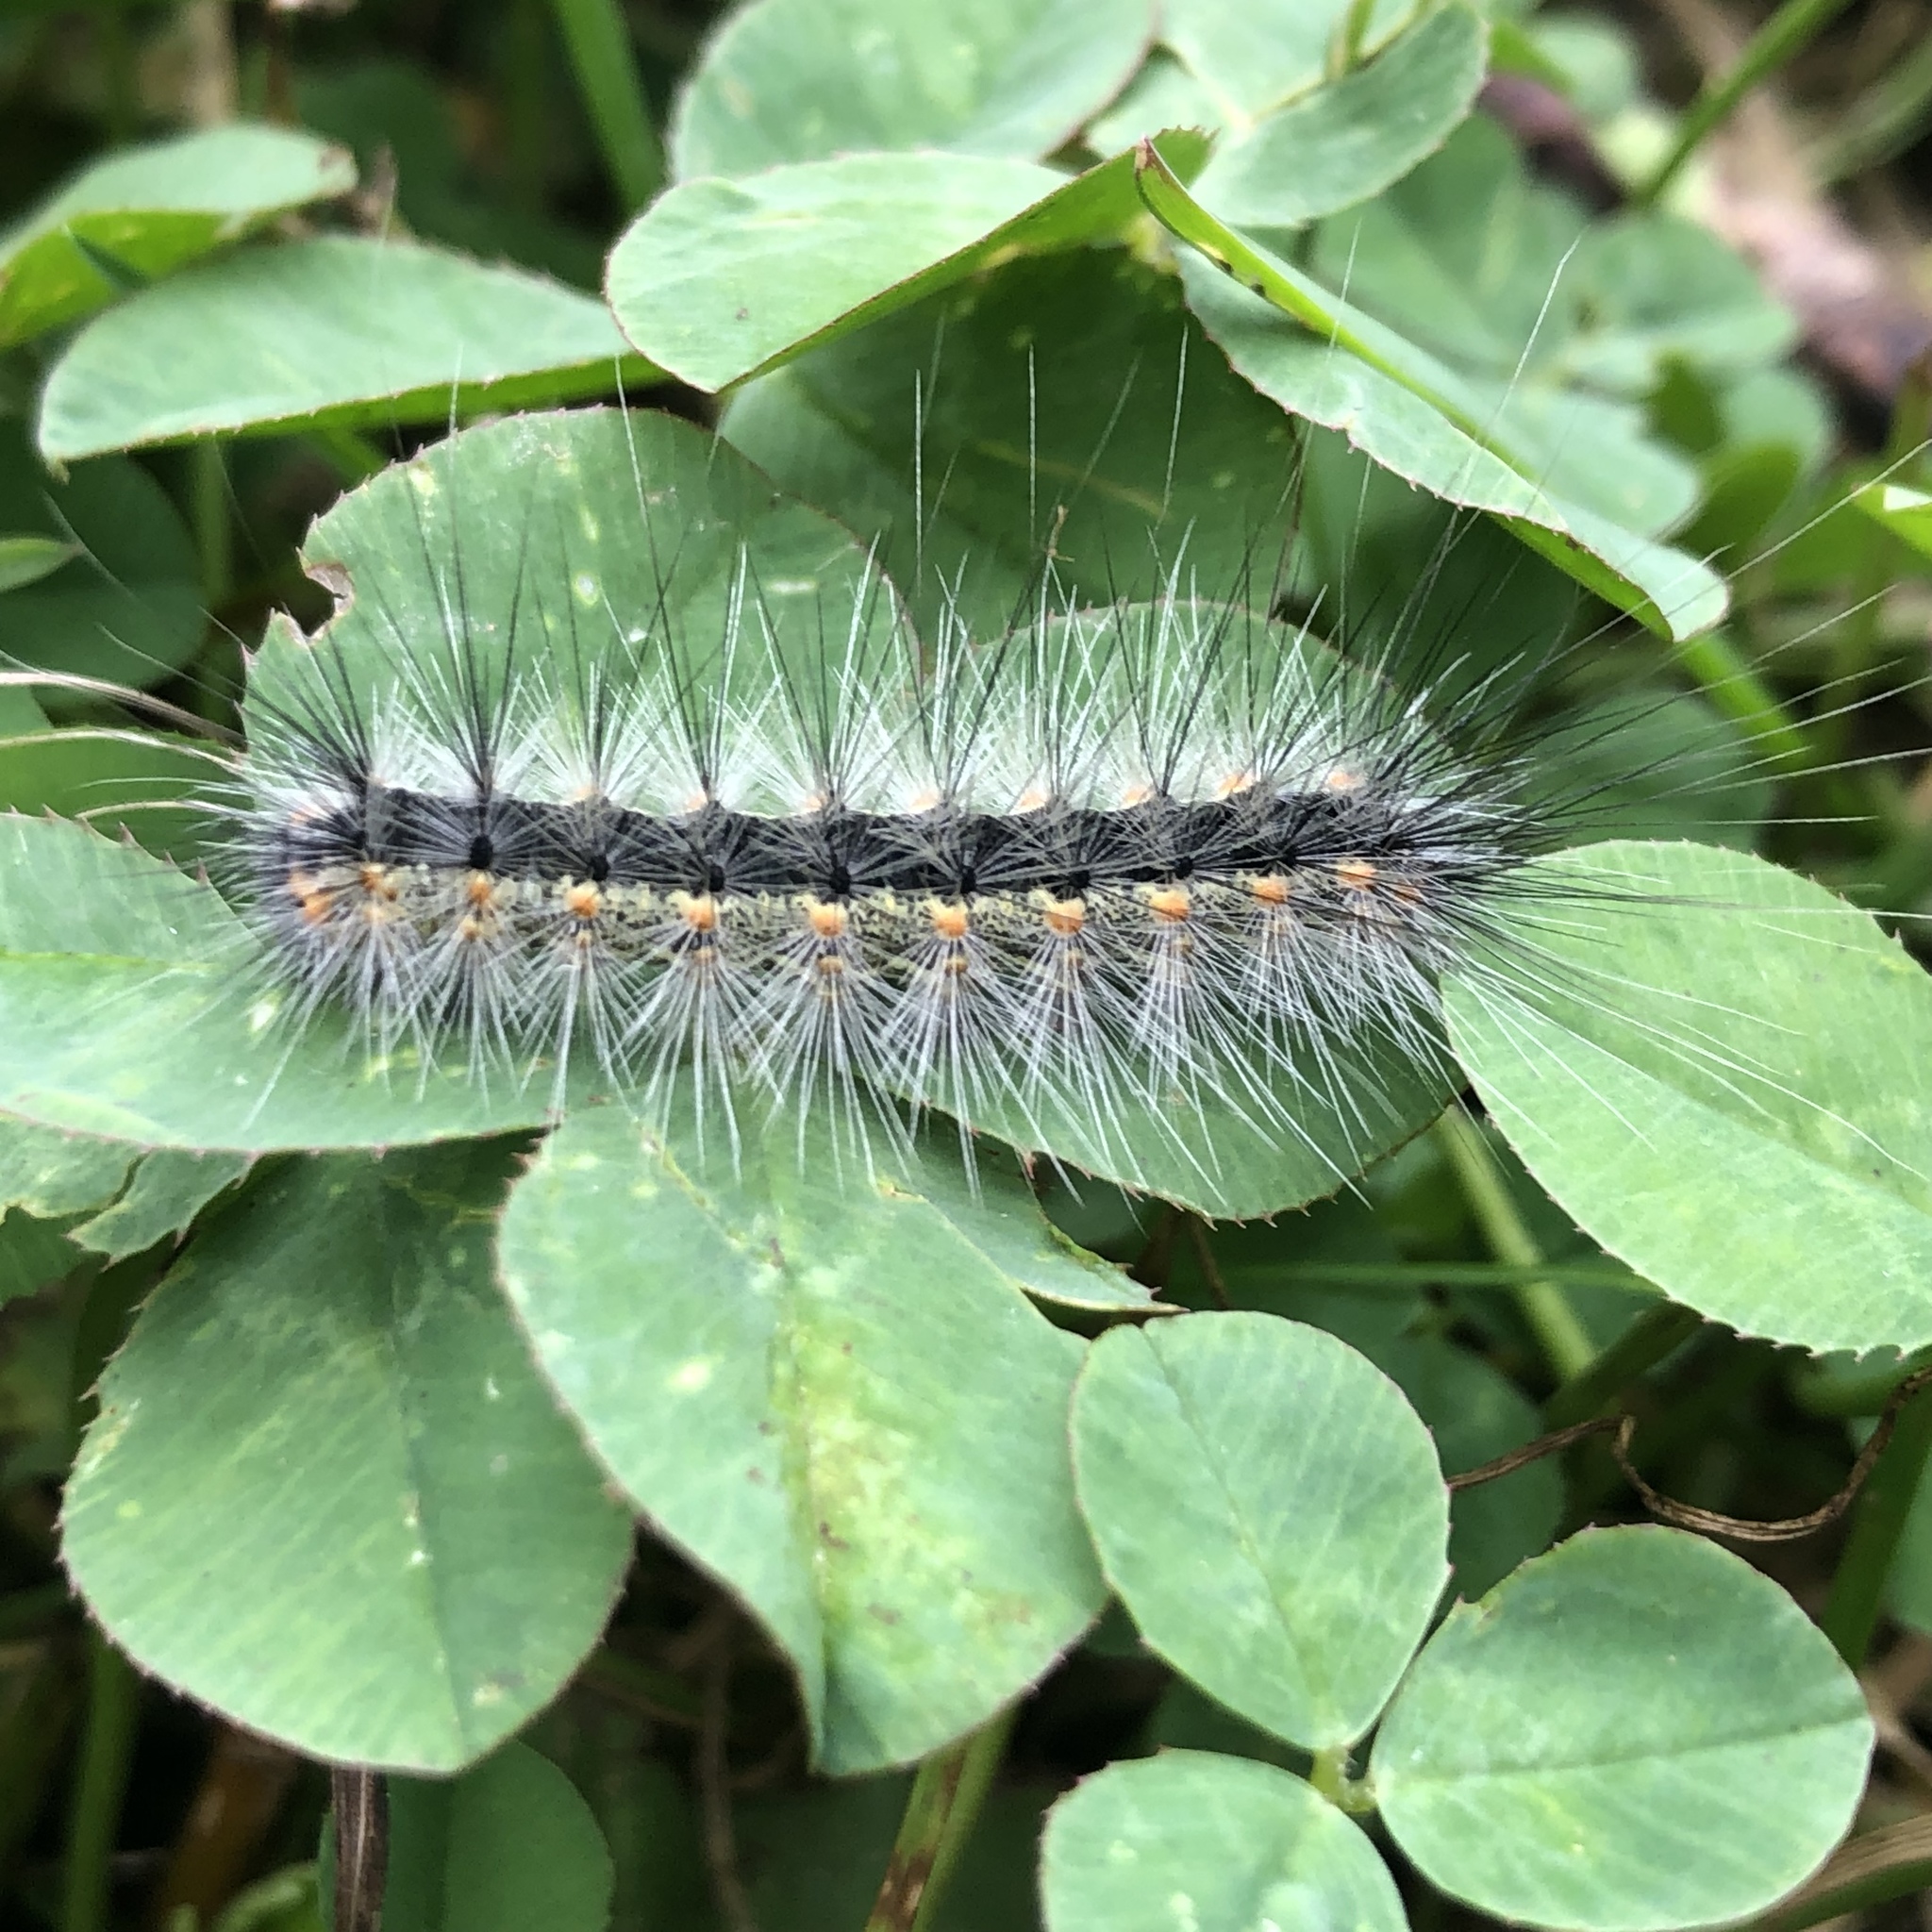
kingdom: Animalia
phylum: Arthropoda
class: Insecta
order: Lepidoptera
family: Erebidae
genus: Hyphantria
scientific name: Hyphantria cunea
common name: American white moth
